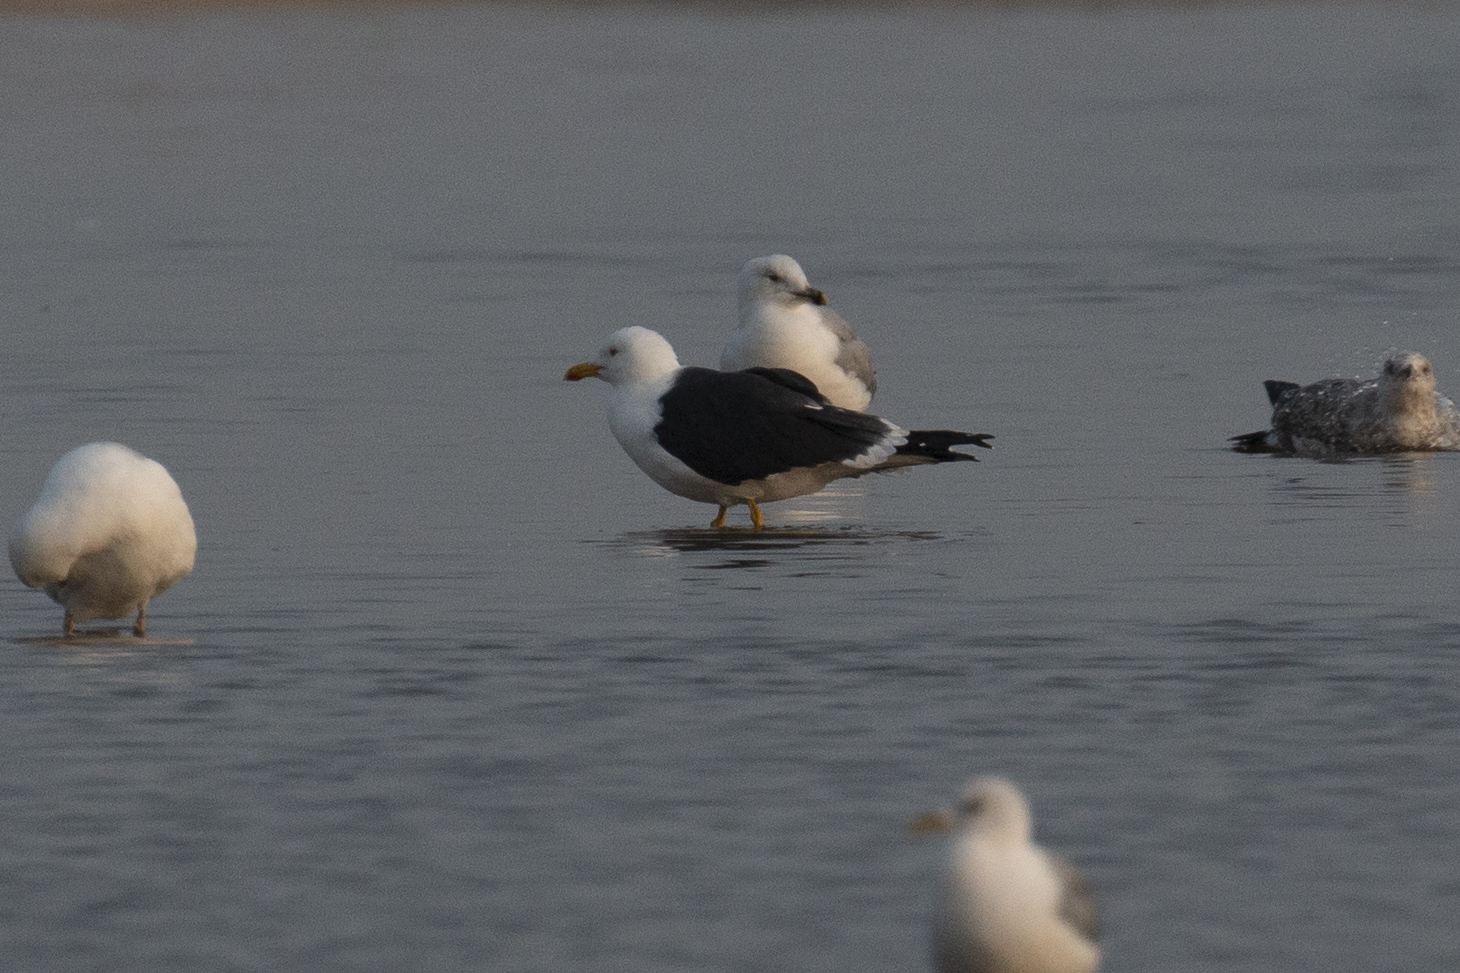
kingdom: Animalia
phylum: Chordata
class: Aves
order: Charadriiformes
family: Laridae
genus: Larus
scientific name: Larus fuscus
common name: Lesser black-backed gull
